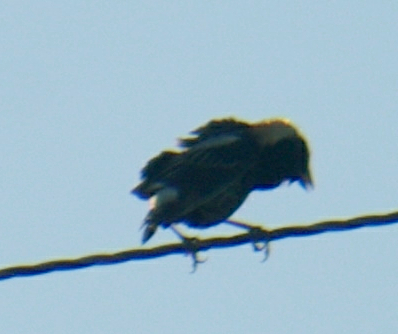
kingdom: Animalia
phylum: Chordata
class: Aves
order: Passeriformes
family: Icteridae
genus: Dolichonyx
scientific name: Dolichonyx oryzivorus
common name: Bobolink
